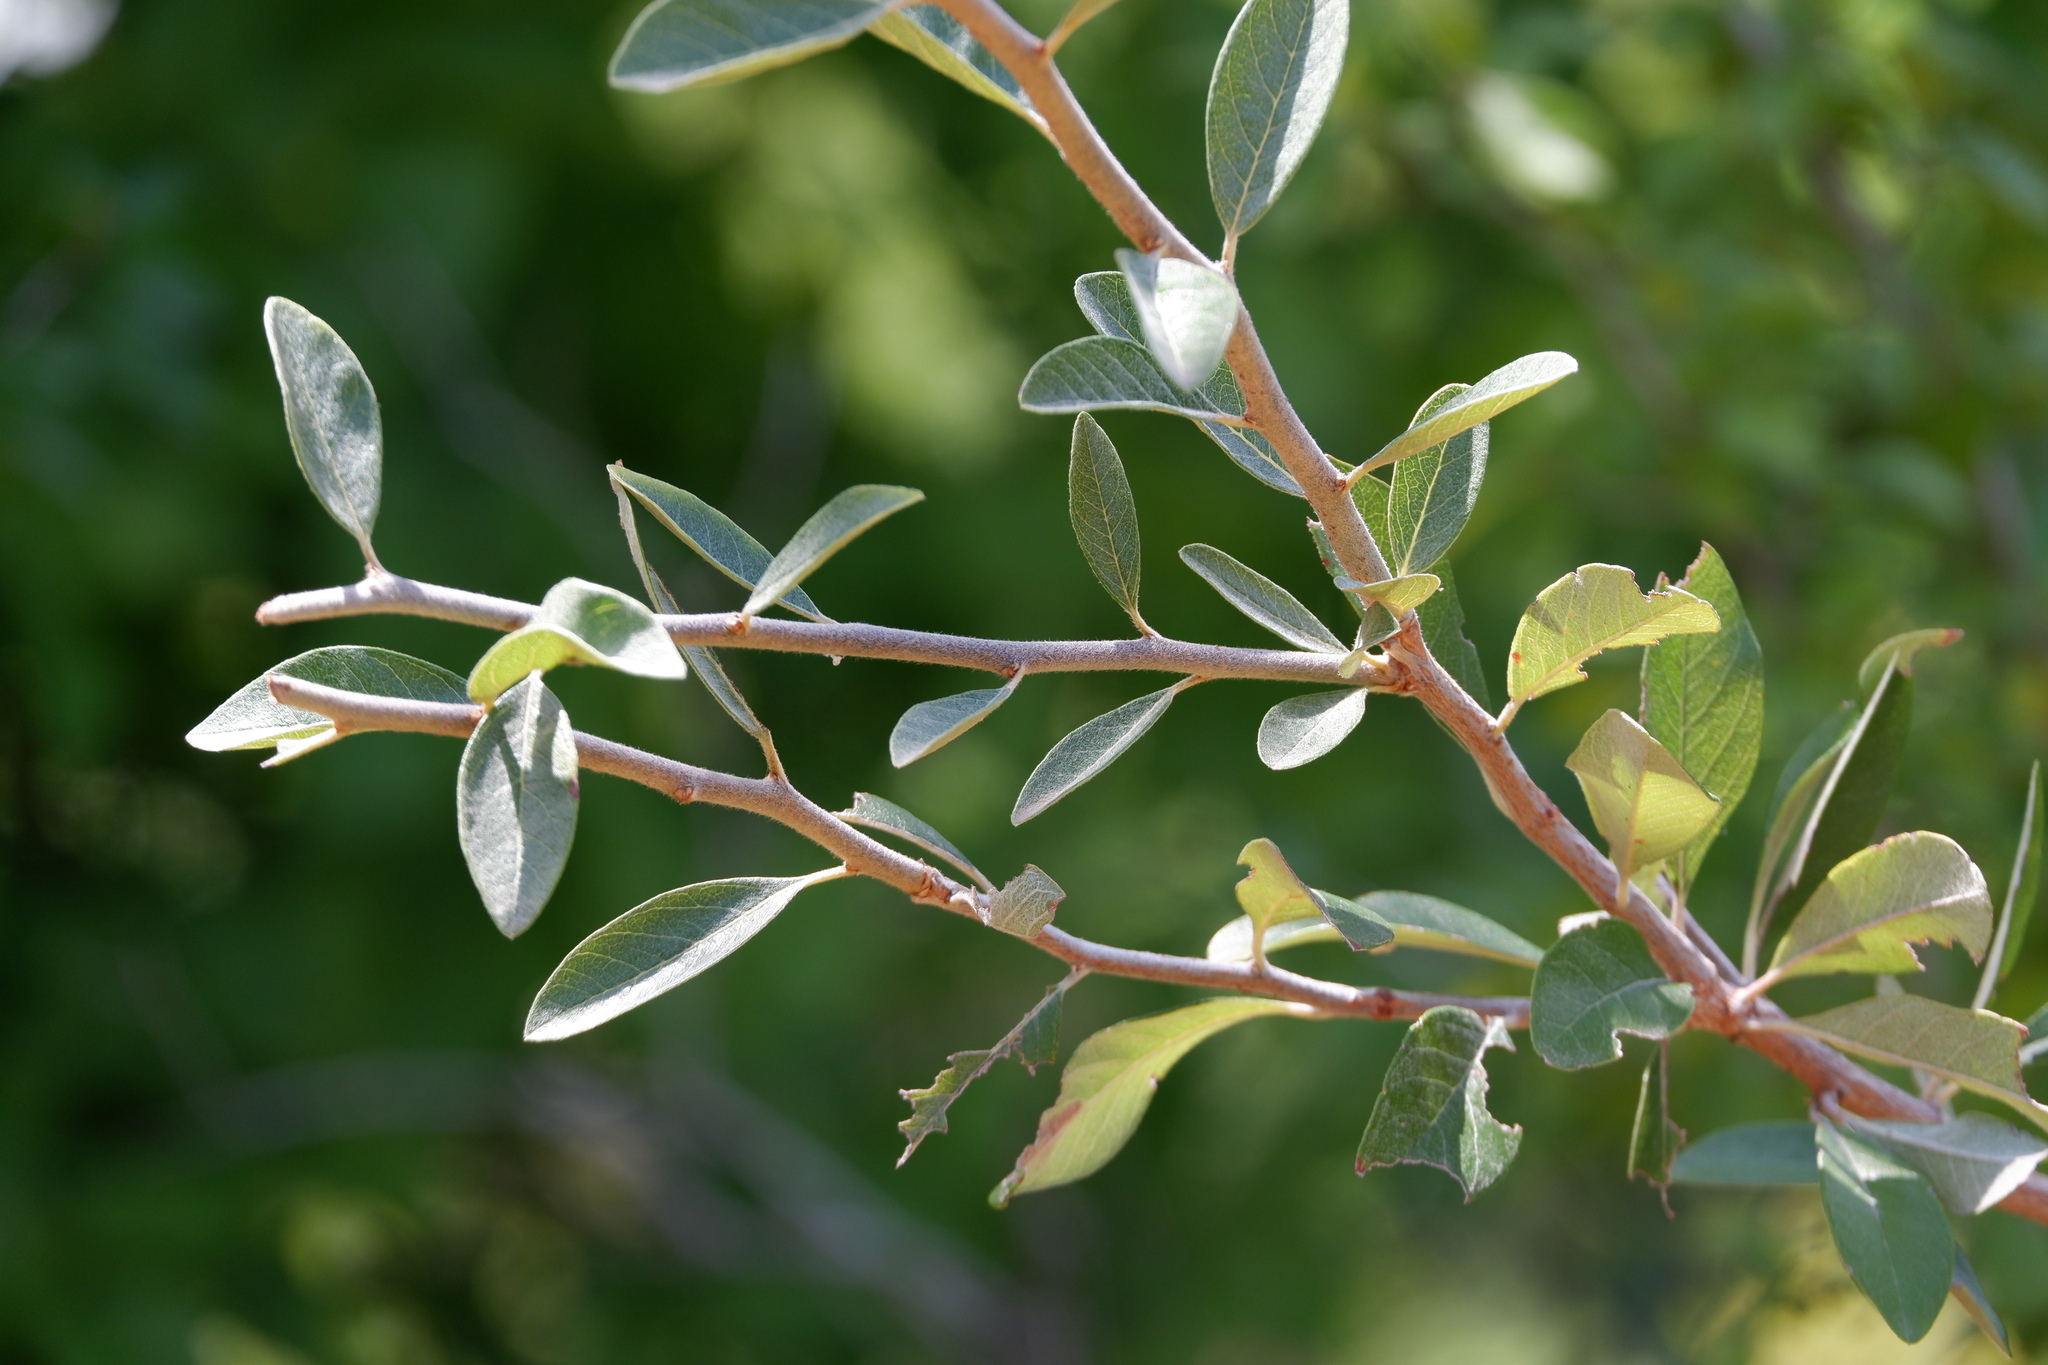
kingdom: Plantae
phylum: Tracheophyta
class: Magnoliopsida
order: Ericales
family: Sapotaceae
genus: Sideroxylon
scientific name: Sideroxylon lanuginosum
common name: Chittamwood
